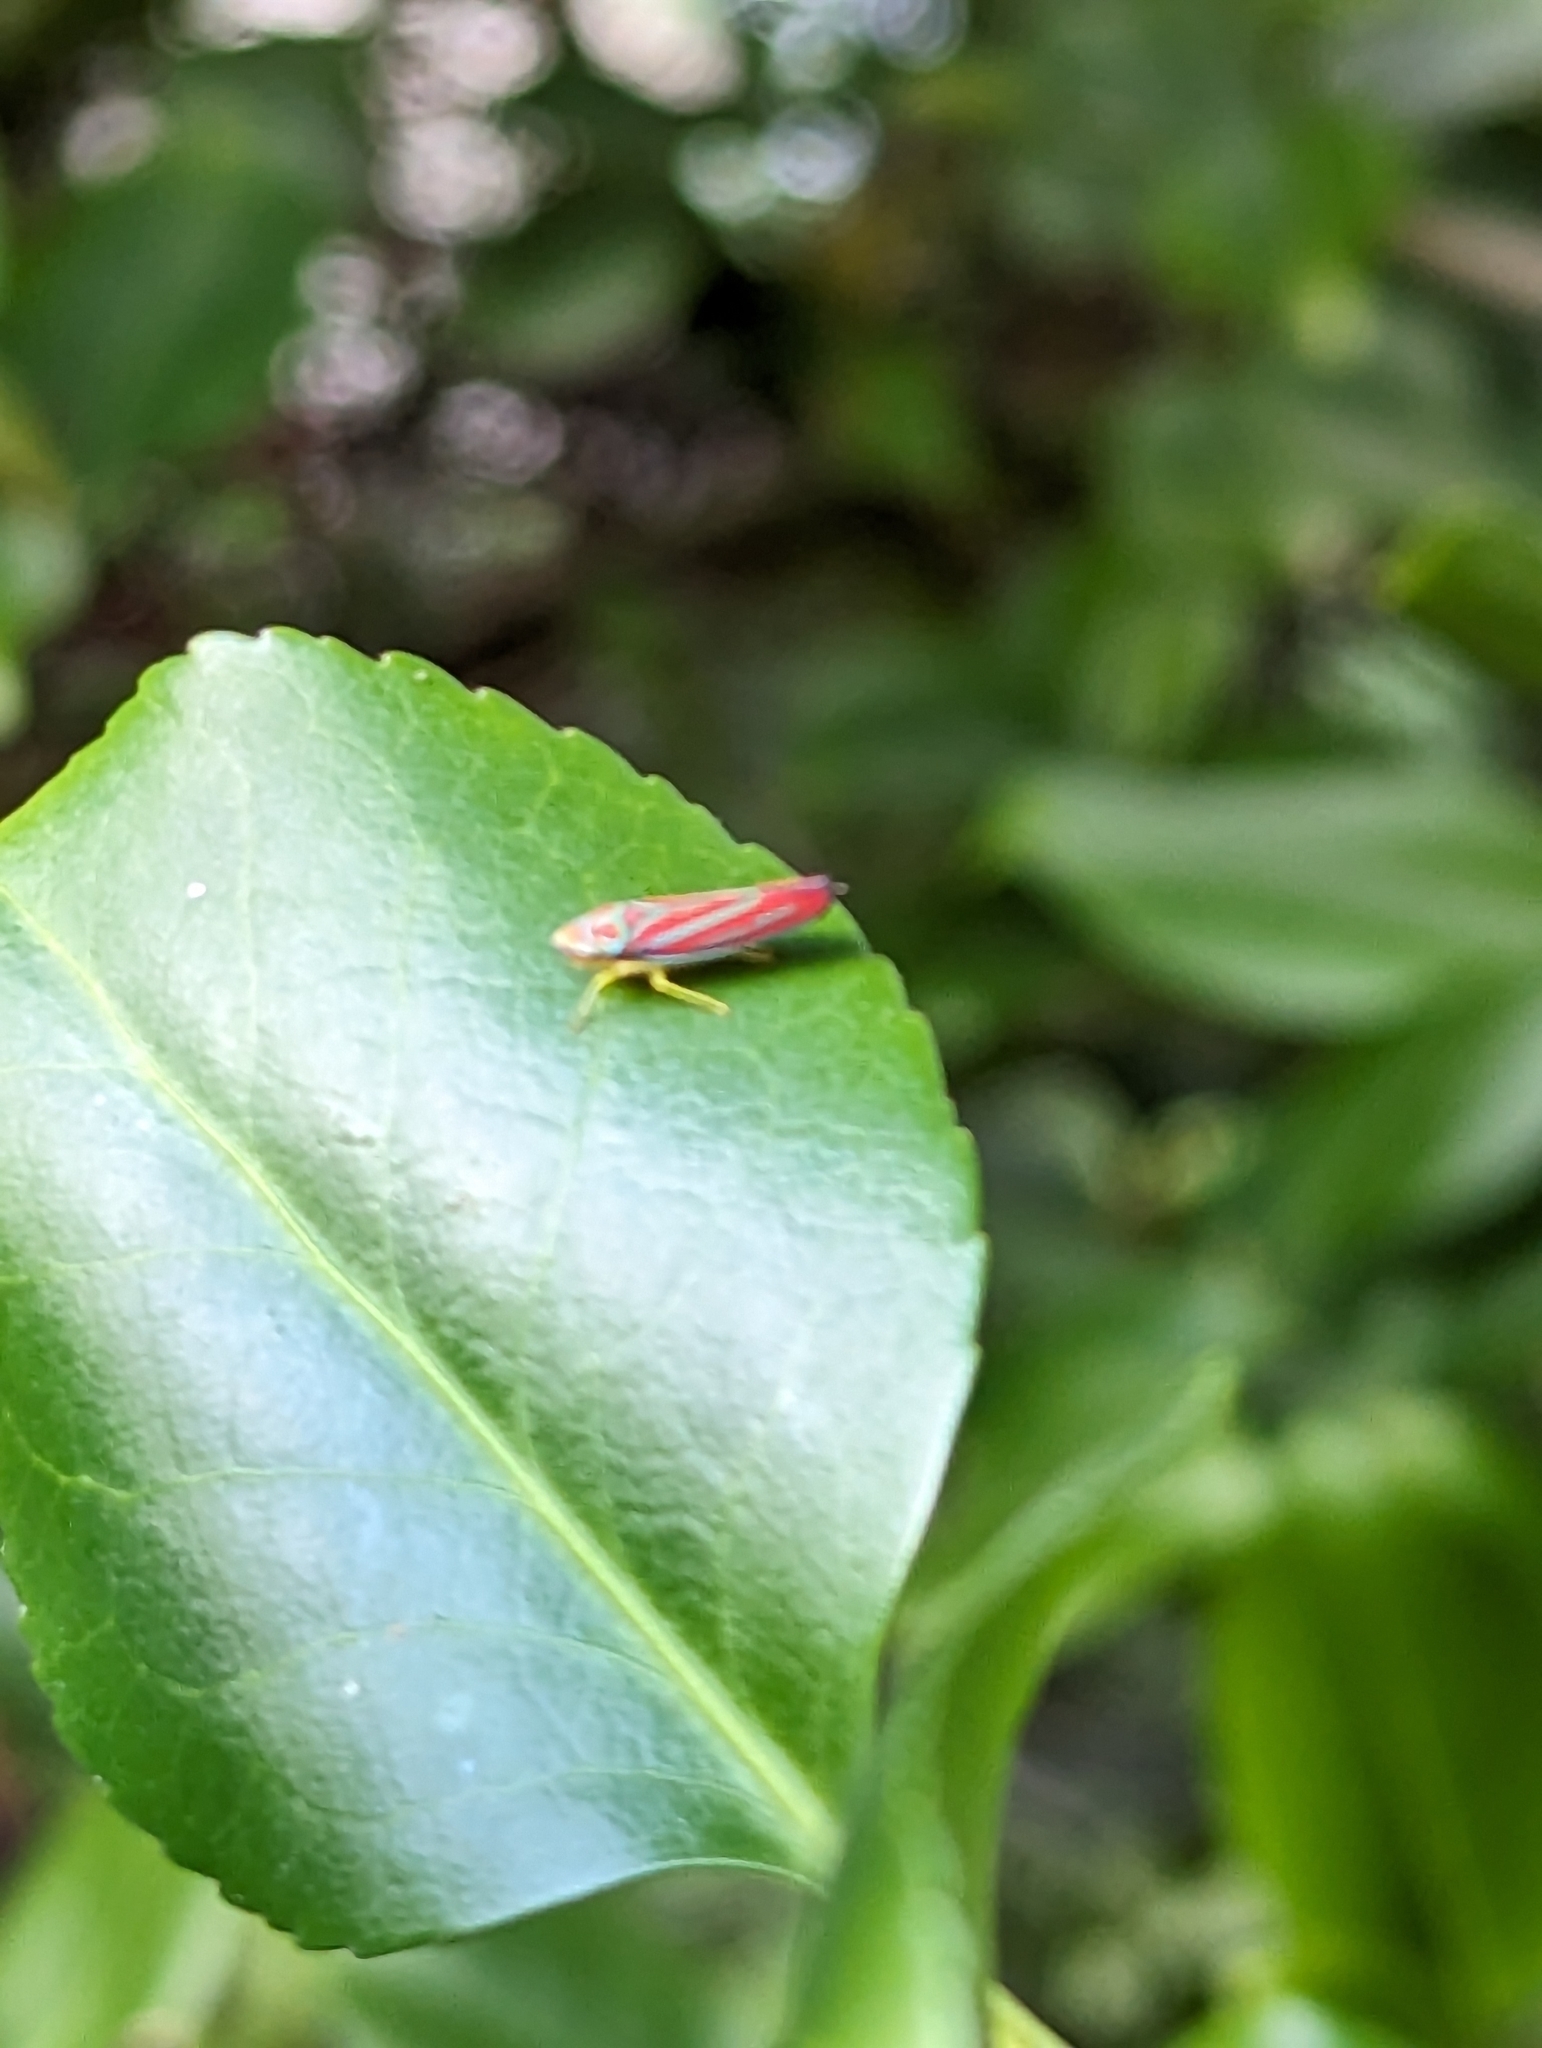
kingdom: Animalia
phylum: Arthropoda
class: Insecta
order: Hemiptera
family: Cicadellidae
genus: Graphocephala
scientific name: Graphocephala coccinea
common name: Candy-striped leafhopper
